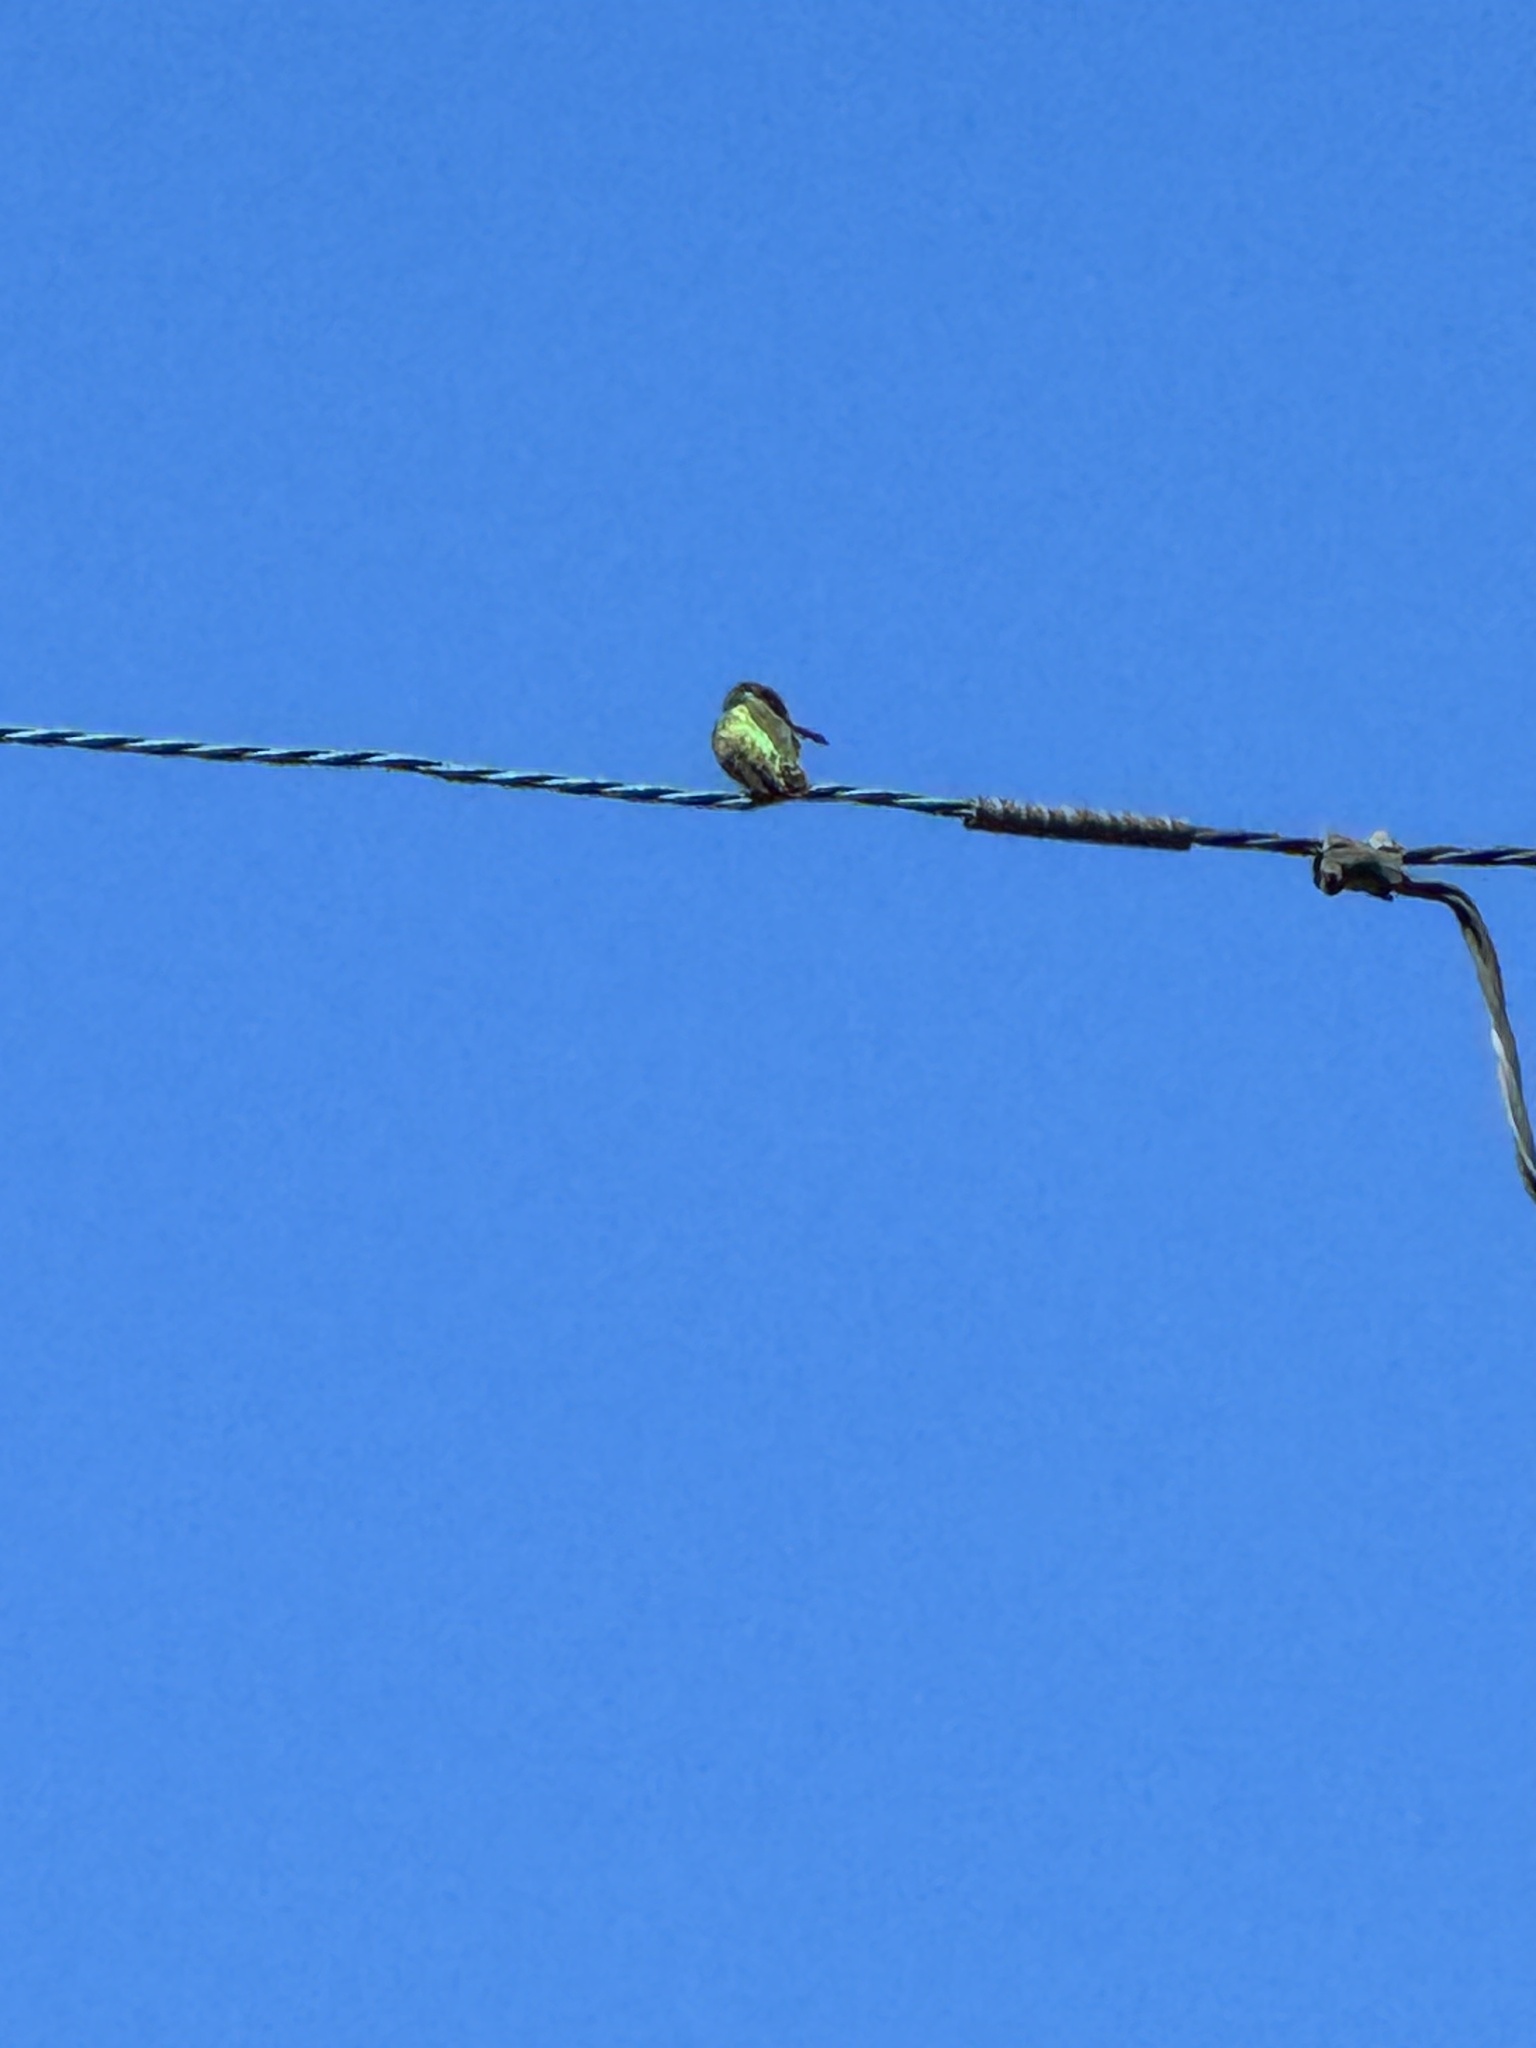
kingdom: Animalia
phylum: Chordata
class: Aves
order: Apodiformes
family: Trochilidae
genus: Calypte
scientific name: Calypte anna
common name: Anna's hummingbird
